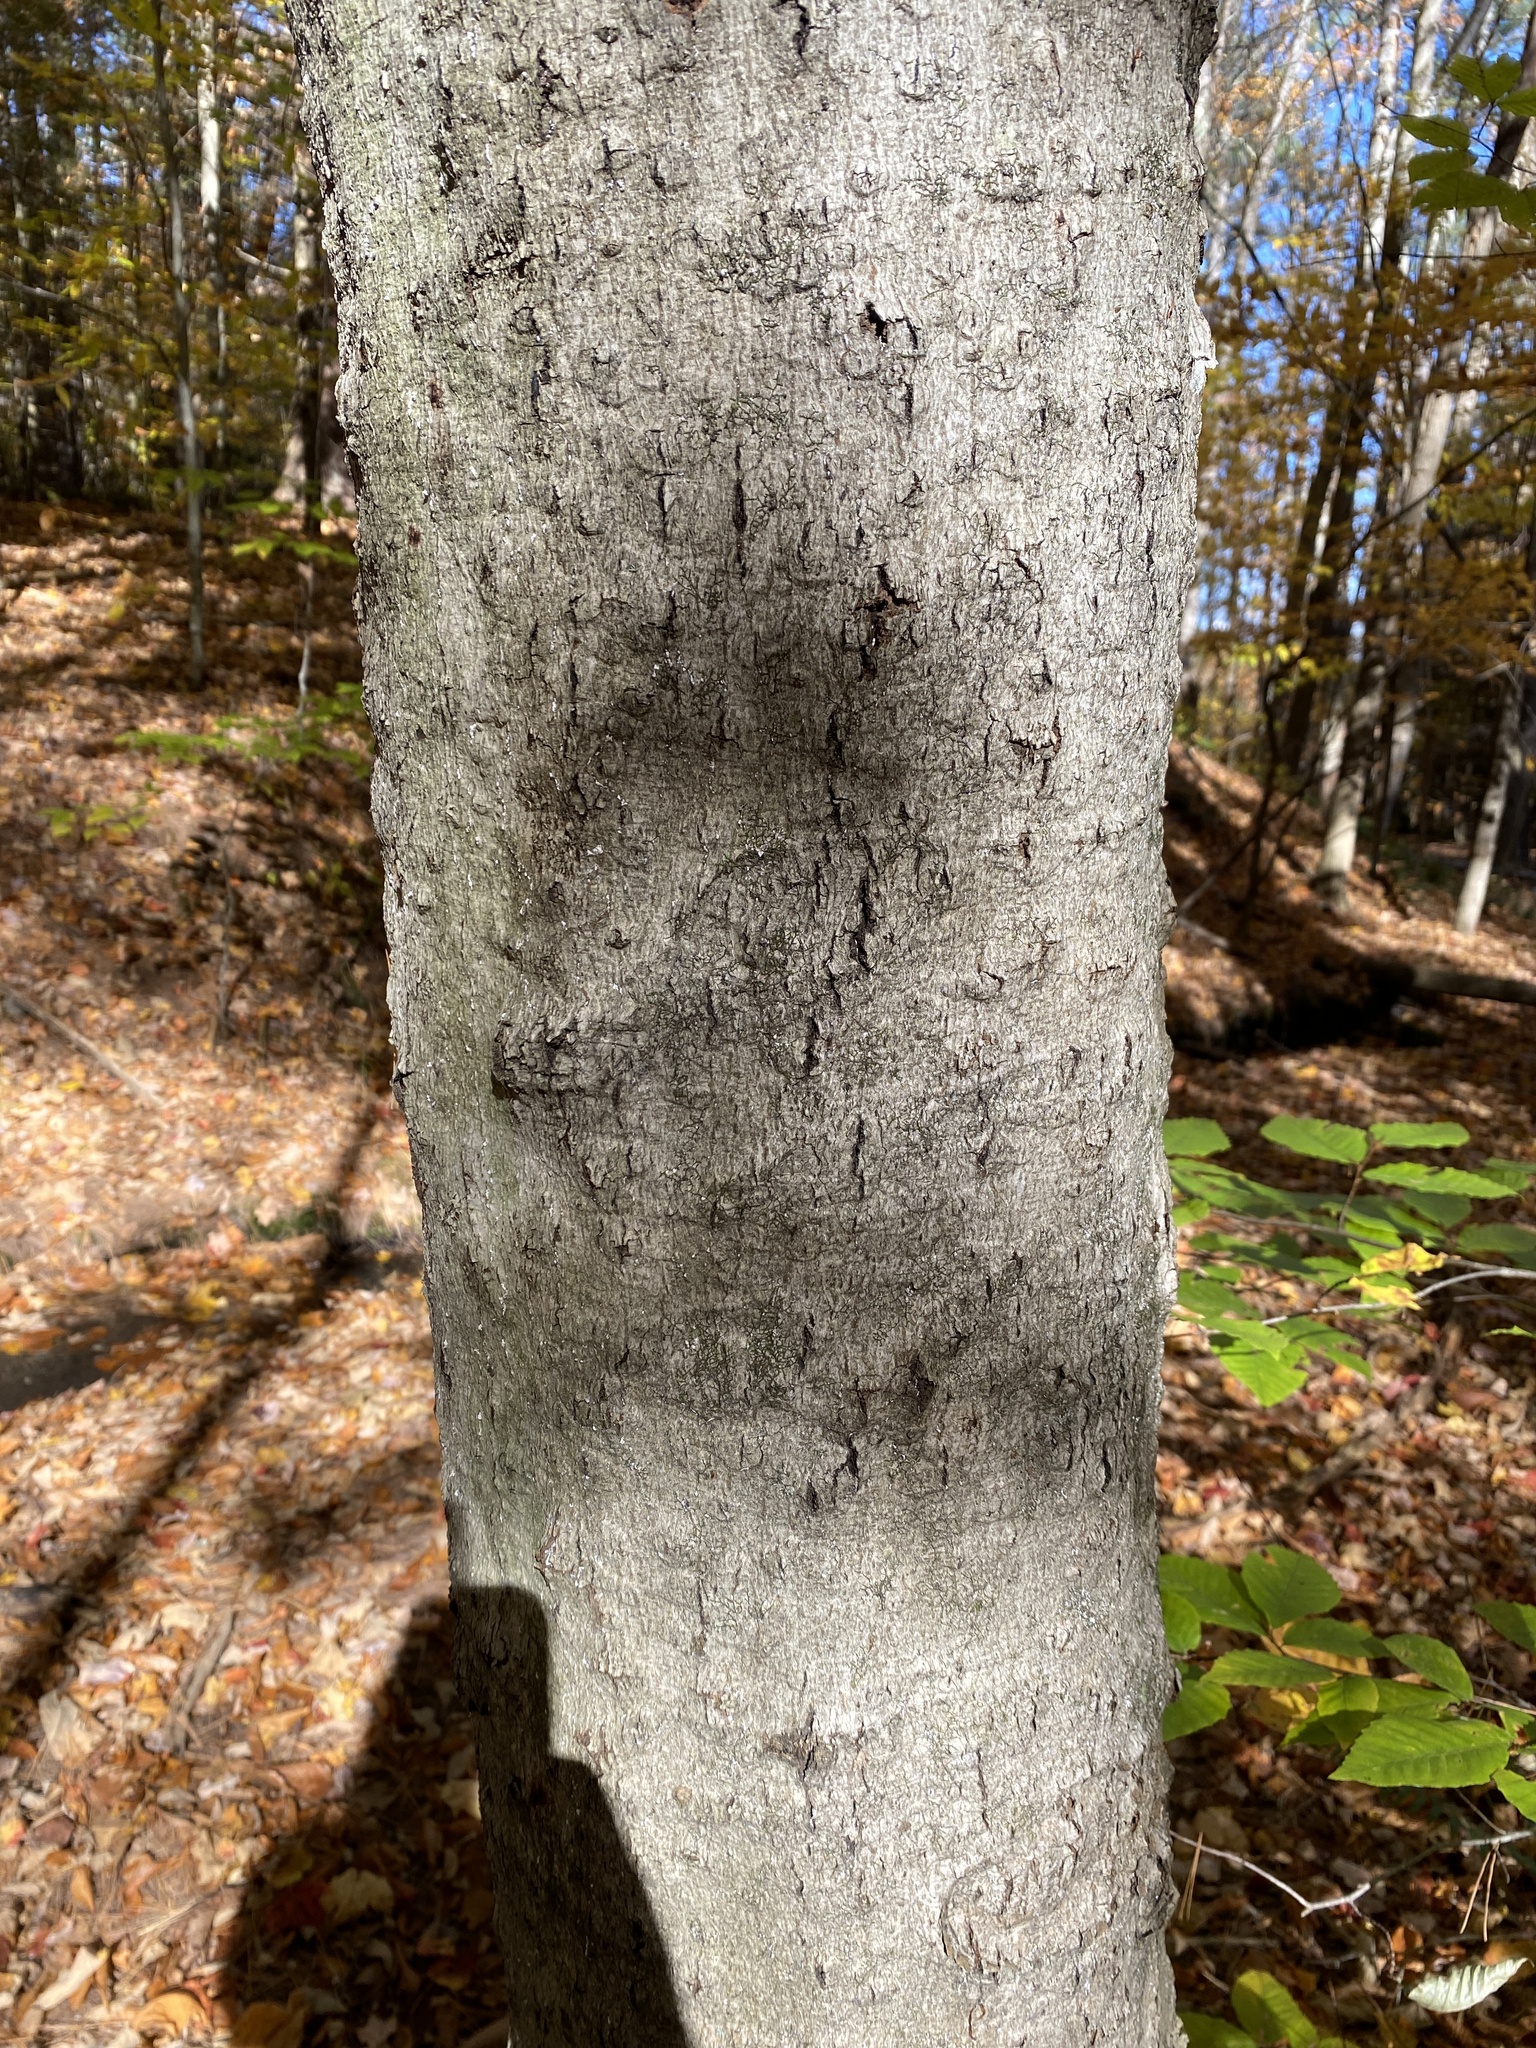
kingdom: Fungi
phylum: Ascomycota
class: Sordariomycetes
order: Hypocreales
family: Nectriaceae
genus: Neonectria
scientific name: Neonectria faginata
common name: Beech bark canker
